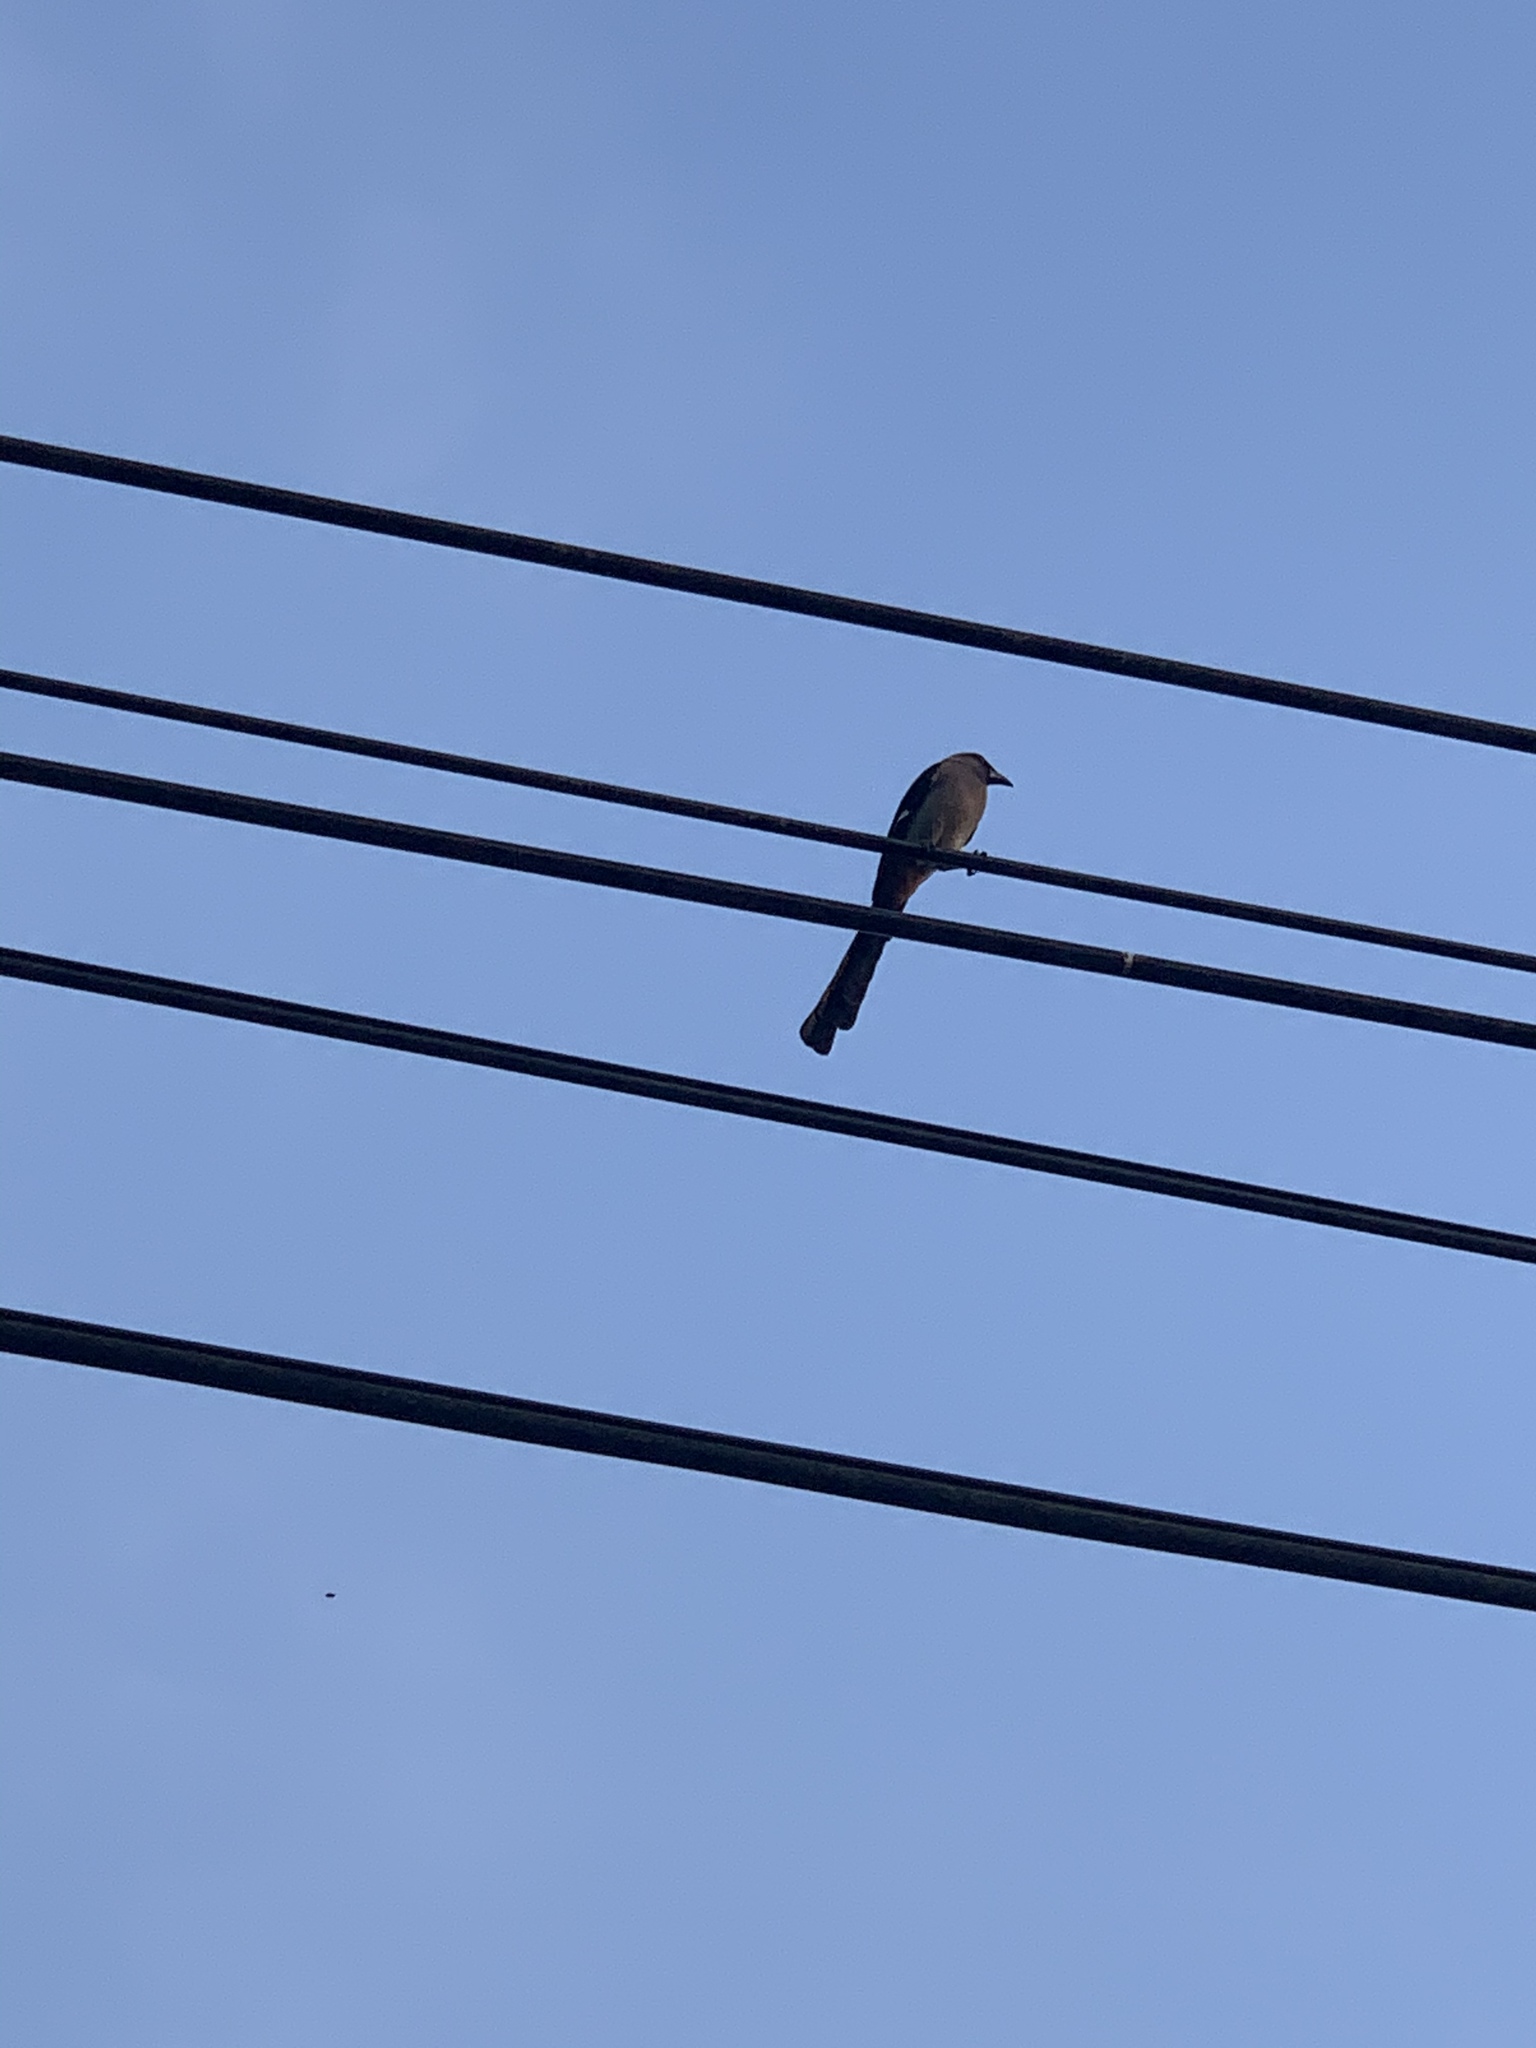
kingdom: Animalia
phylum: Chordata
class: Aves
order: Passeriformes
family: Corvidae
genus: Dendrocitta
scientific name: Dendrocitta formosae
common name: Grey treepie
